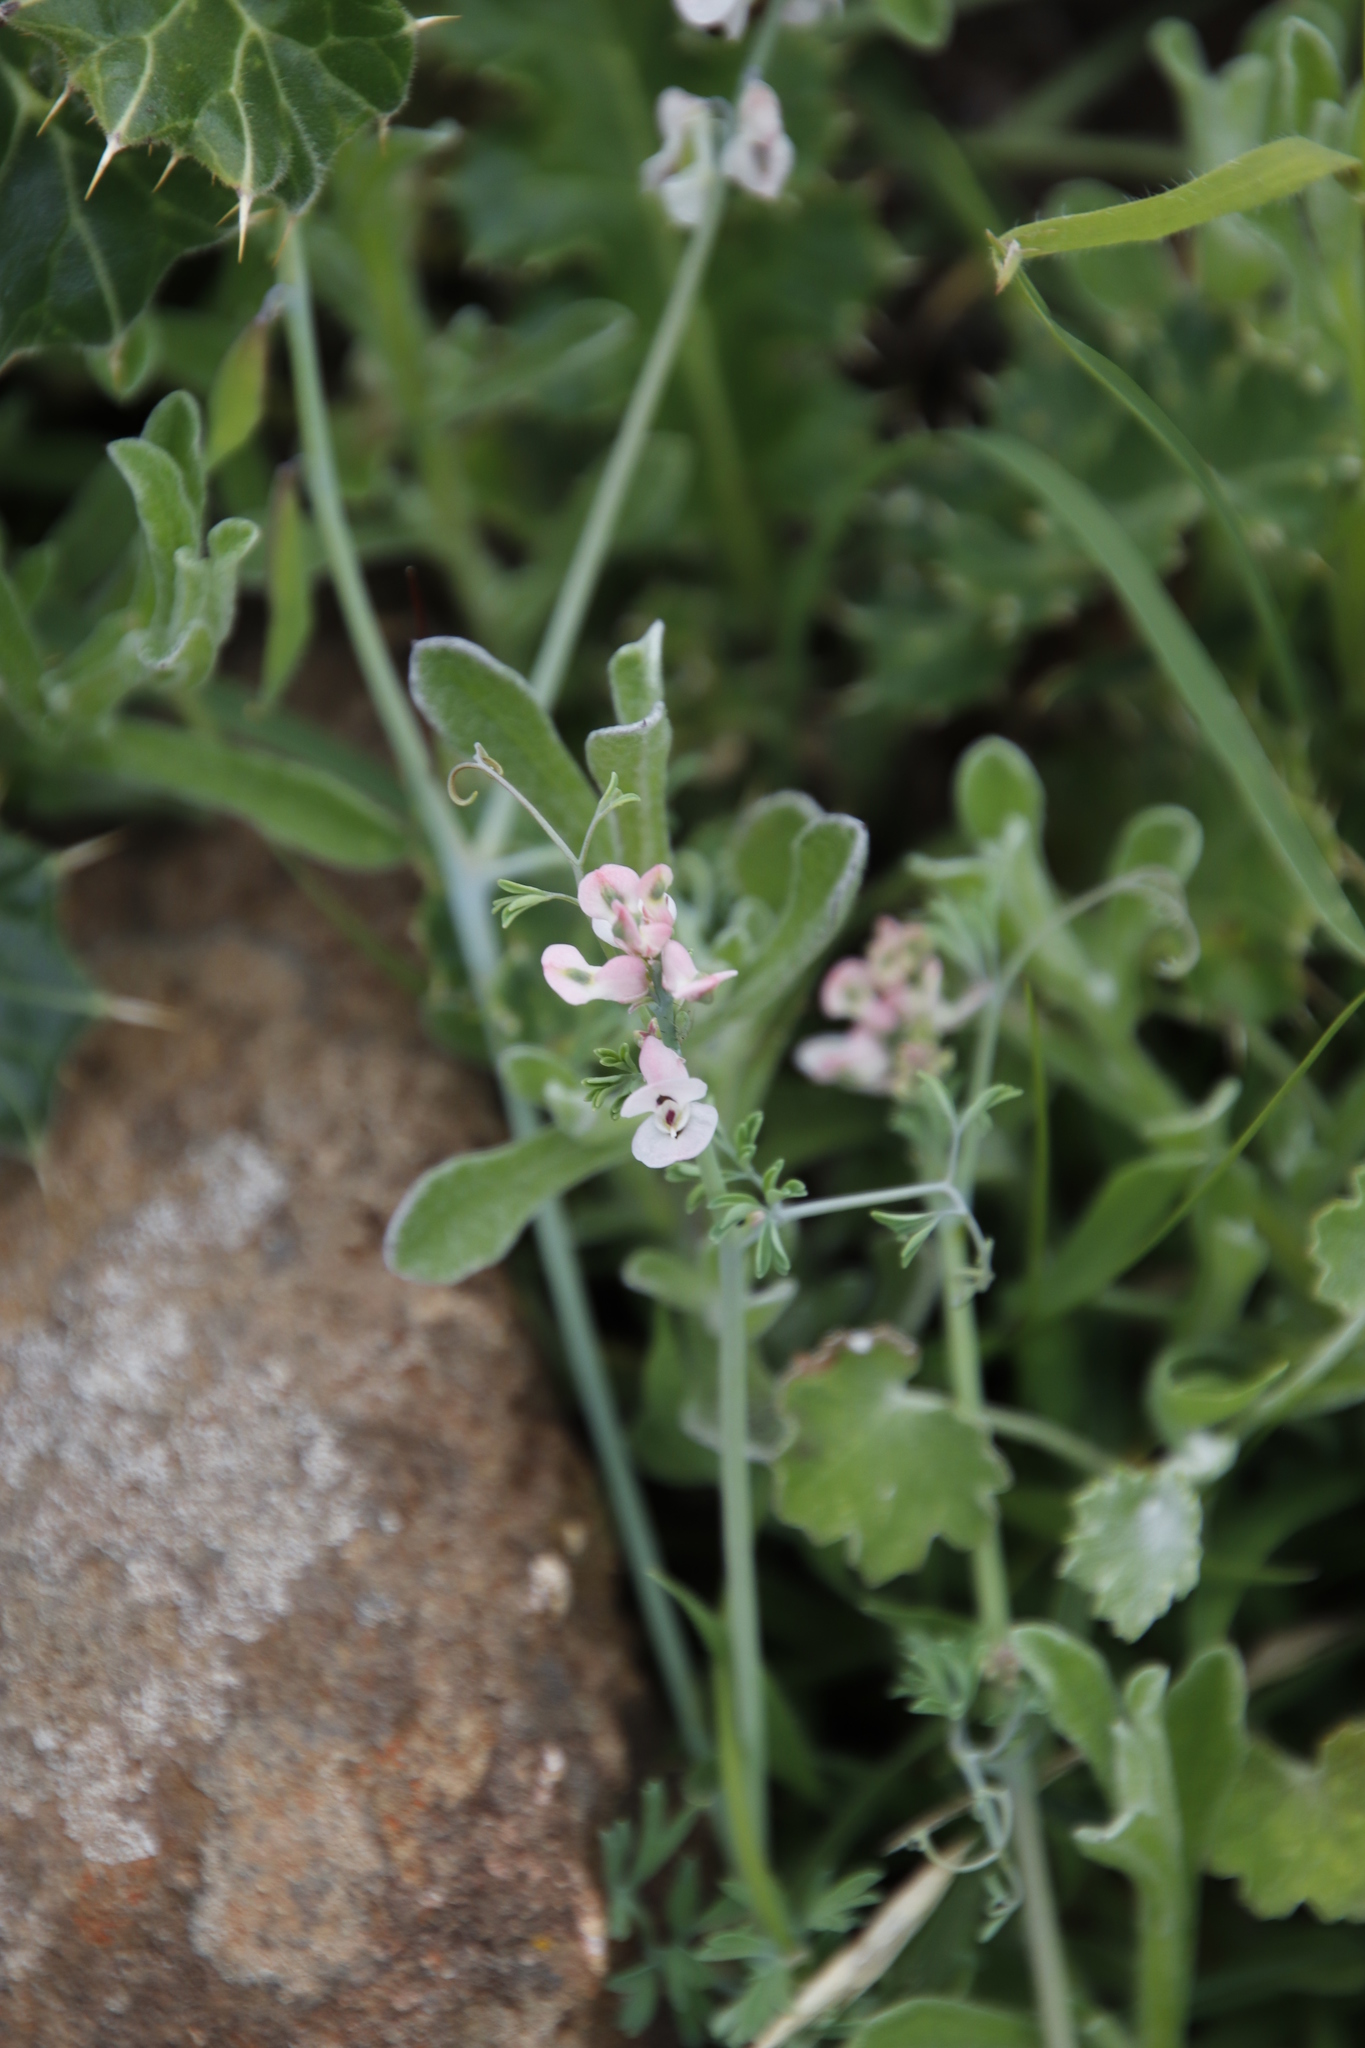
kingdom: Plantae
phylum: Tracheophyta
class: Magnoliopsida
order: Ranunculales
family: Papaveraceae
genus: Cysticapnos
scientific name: Cysticapnos pruinosa
